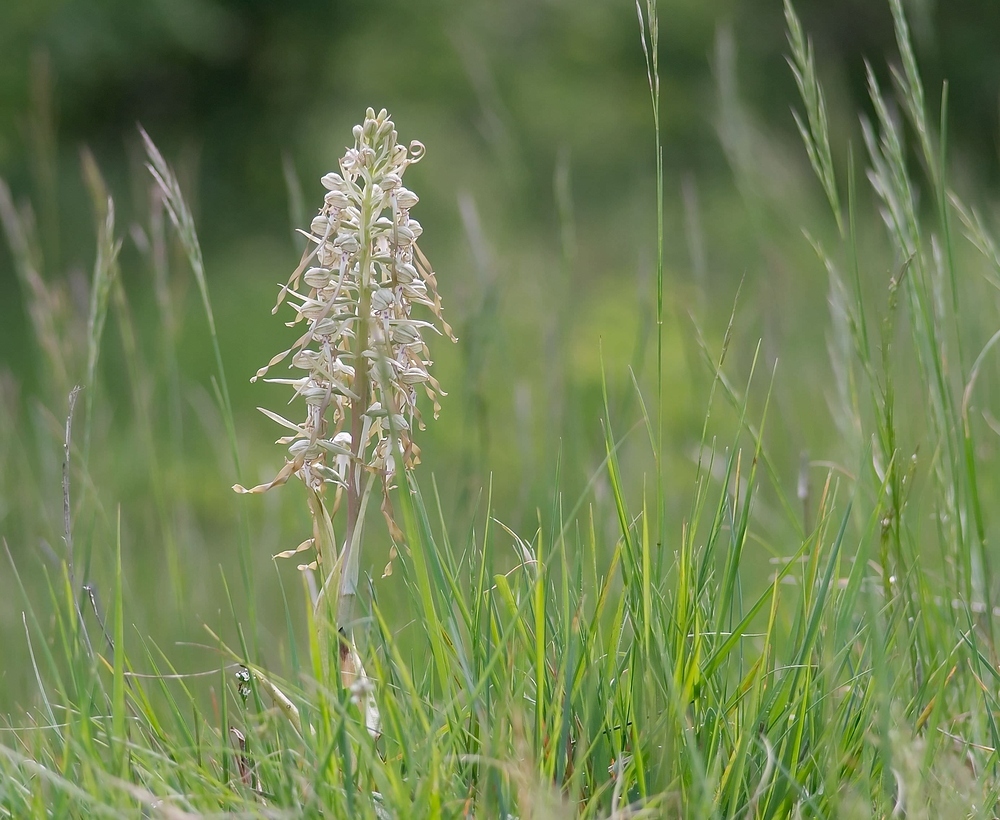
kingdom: Plantae
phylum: Tracheophyta
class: Liliopsida
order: Asparagales
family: Orchidaceae
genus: Himantoglossum
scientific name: Himantoglossum hircinum
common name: Lizard orchid
